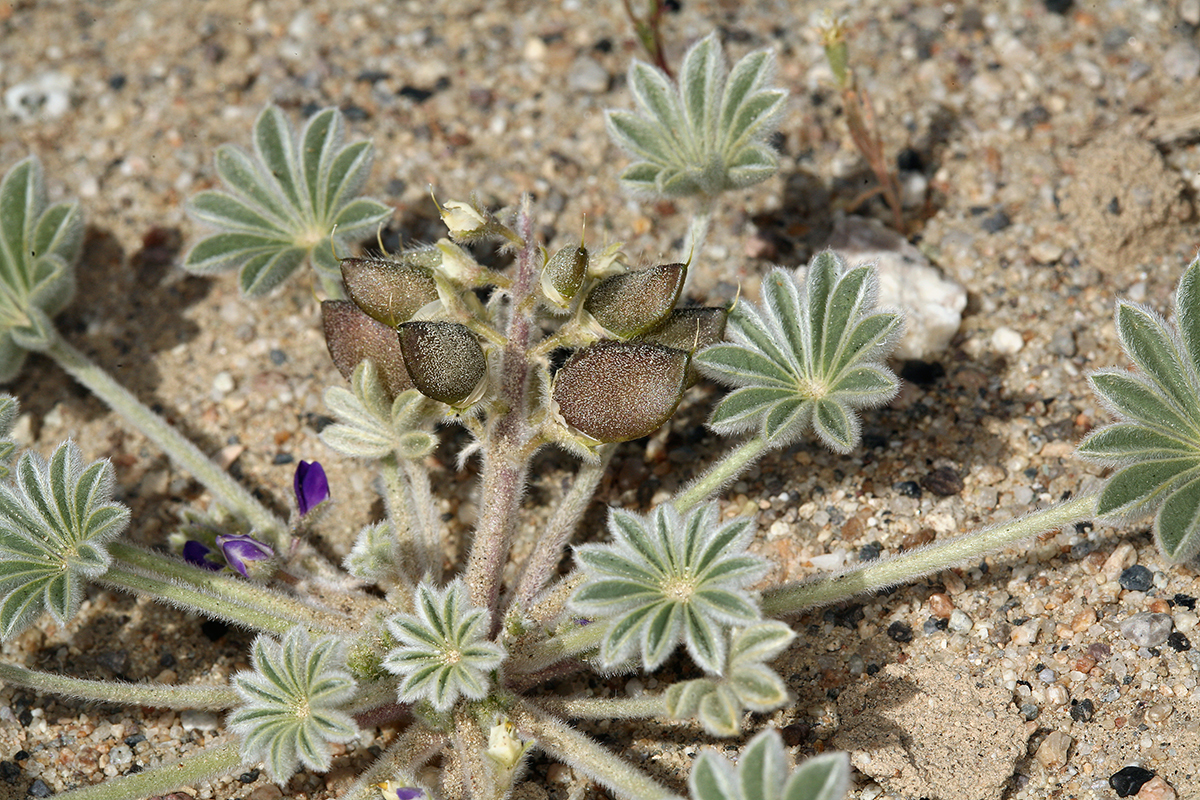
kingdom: Plantae
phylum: Tracheophyta
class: Magnoliopsida
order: Fabales
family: Fabaceae
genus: Lupinus
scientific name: Lupinus shockleyi
